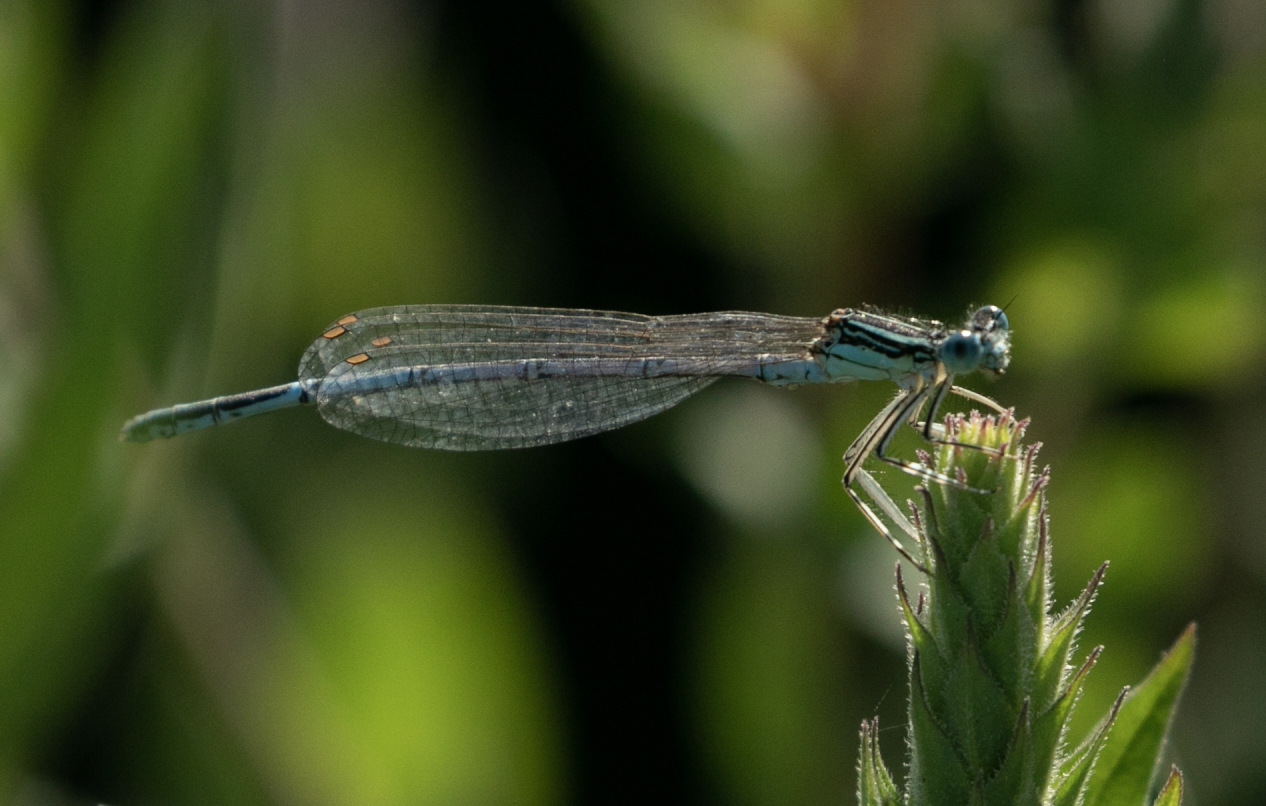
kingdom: Animalia
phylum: Arthropoda
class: Insecta
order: Odonata
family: Platycnemididae
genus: Platycnemis
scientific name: Platycnemis pennipes
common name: White-legged damselfly
